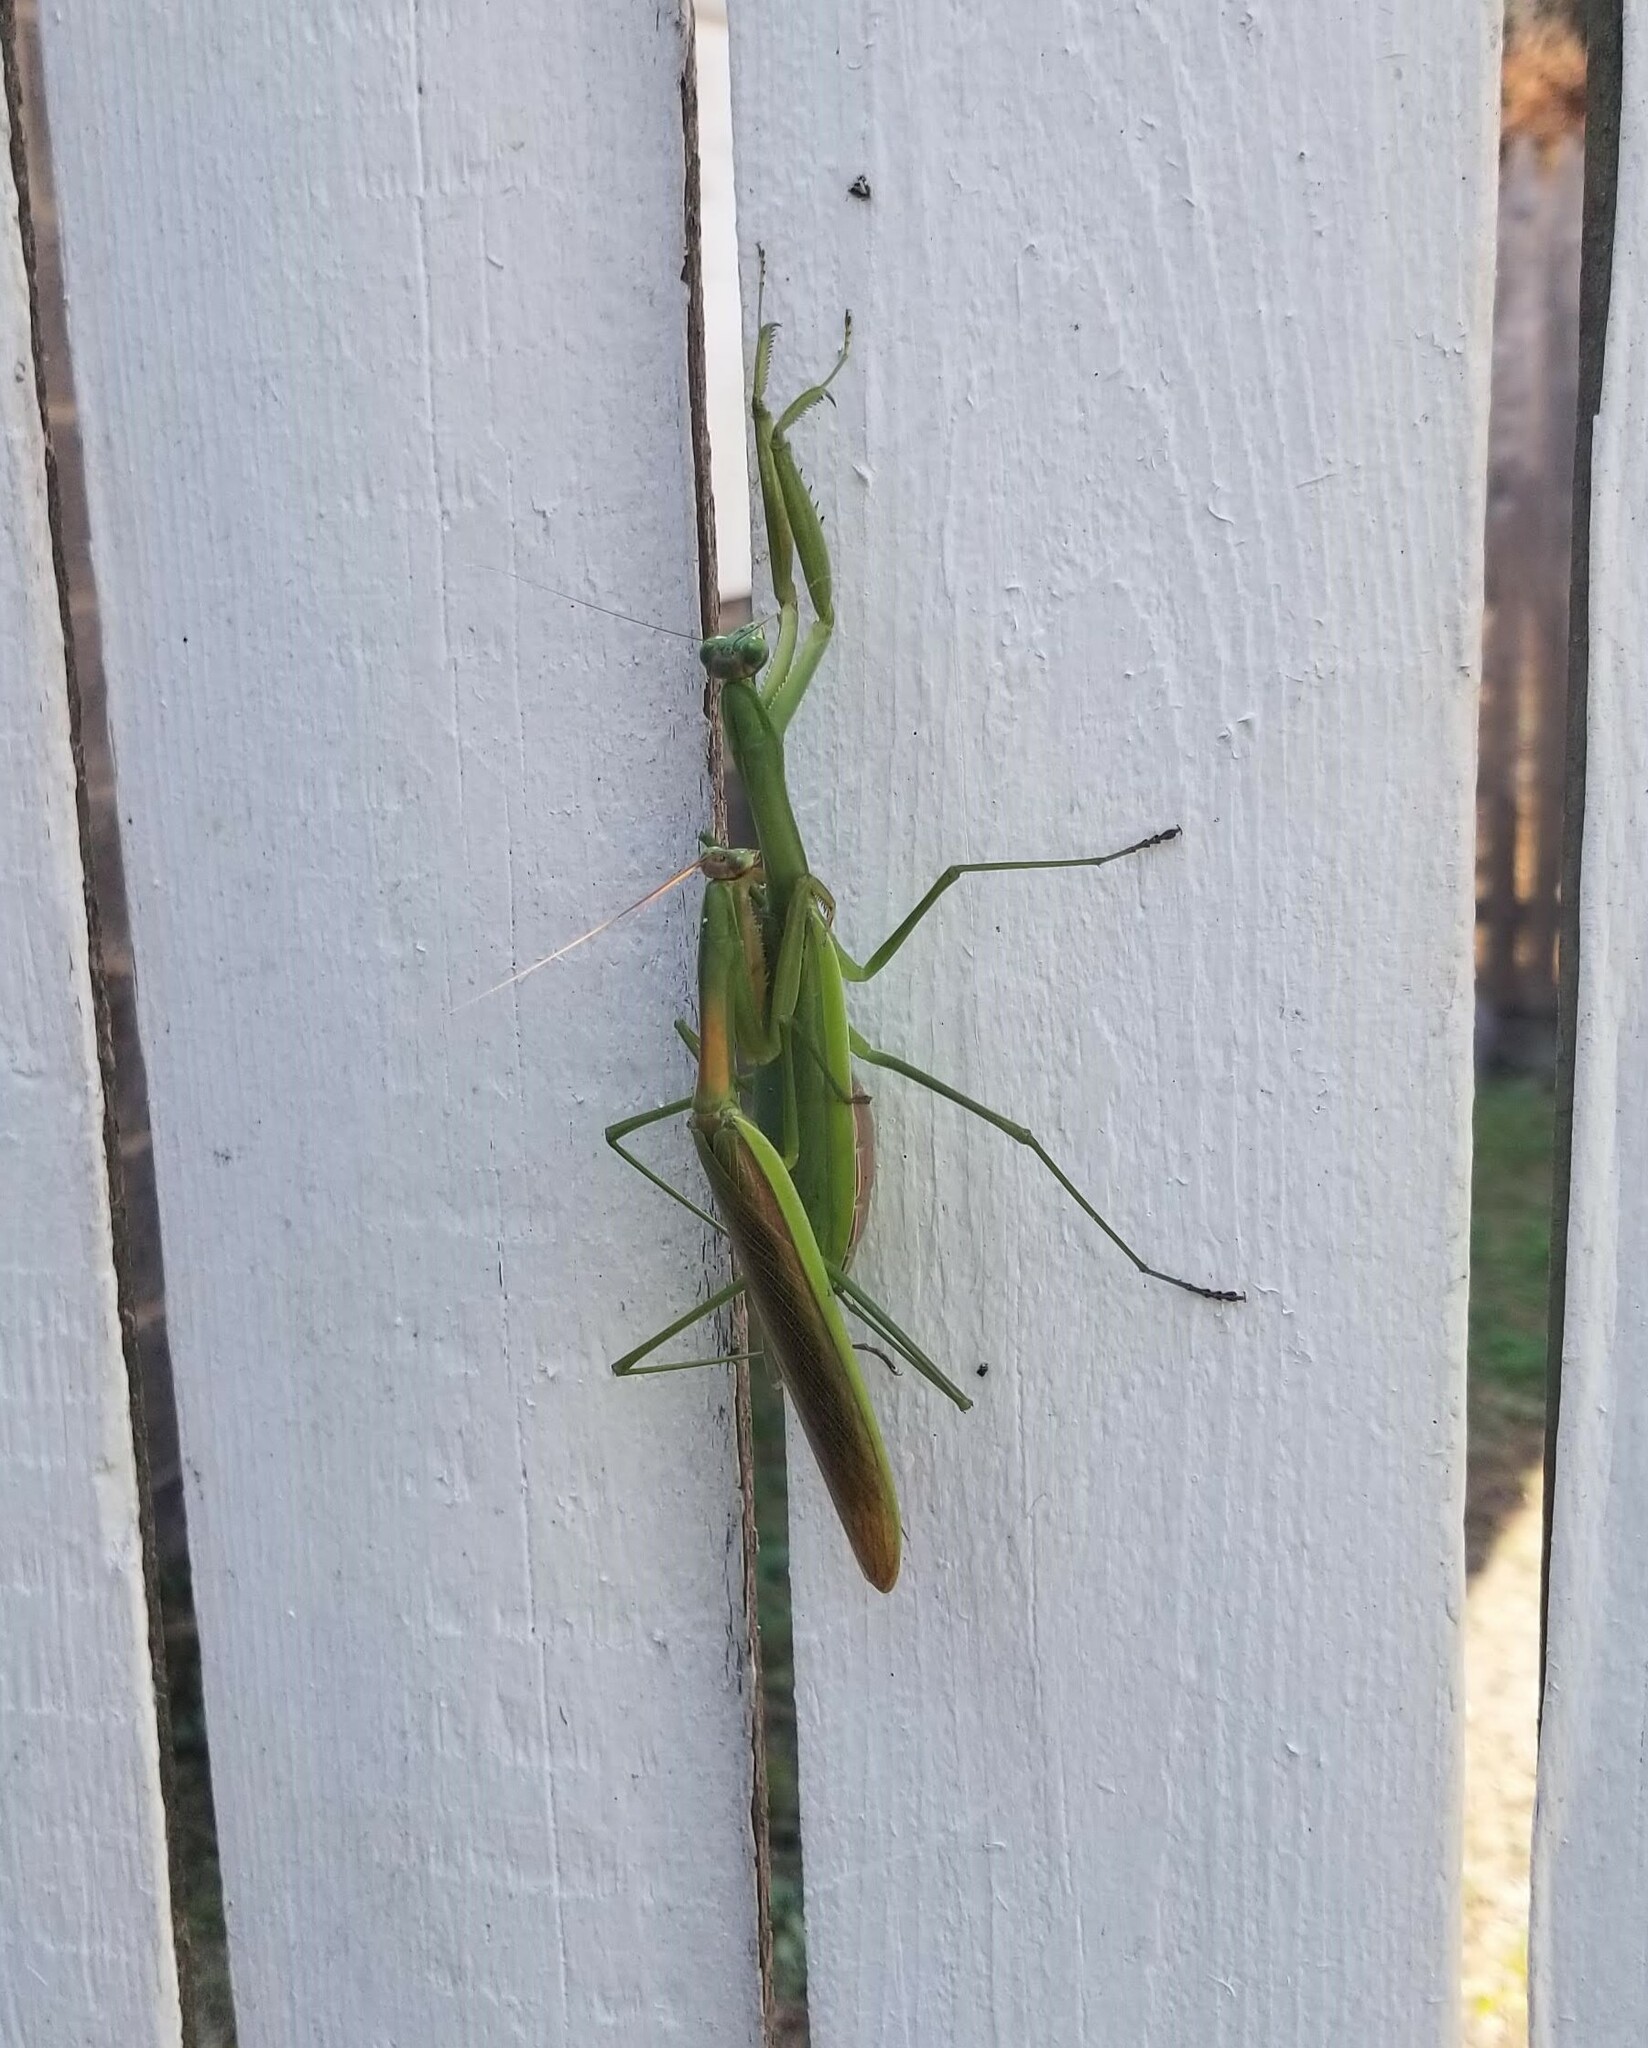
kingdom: Animalia
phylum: Arthropoda
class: Insecta
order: Mantodea
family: Mantidae
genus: Tenodera
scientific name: Tenodera sinensis
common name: Chinese mantis
